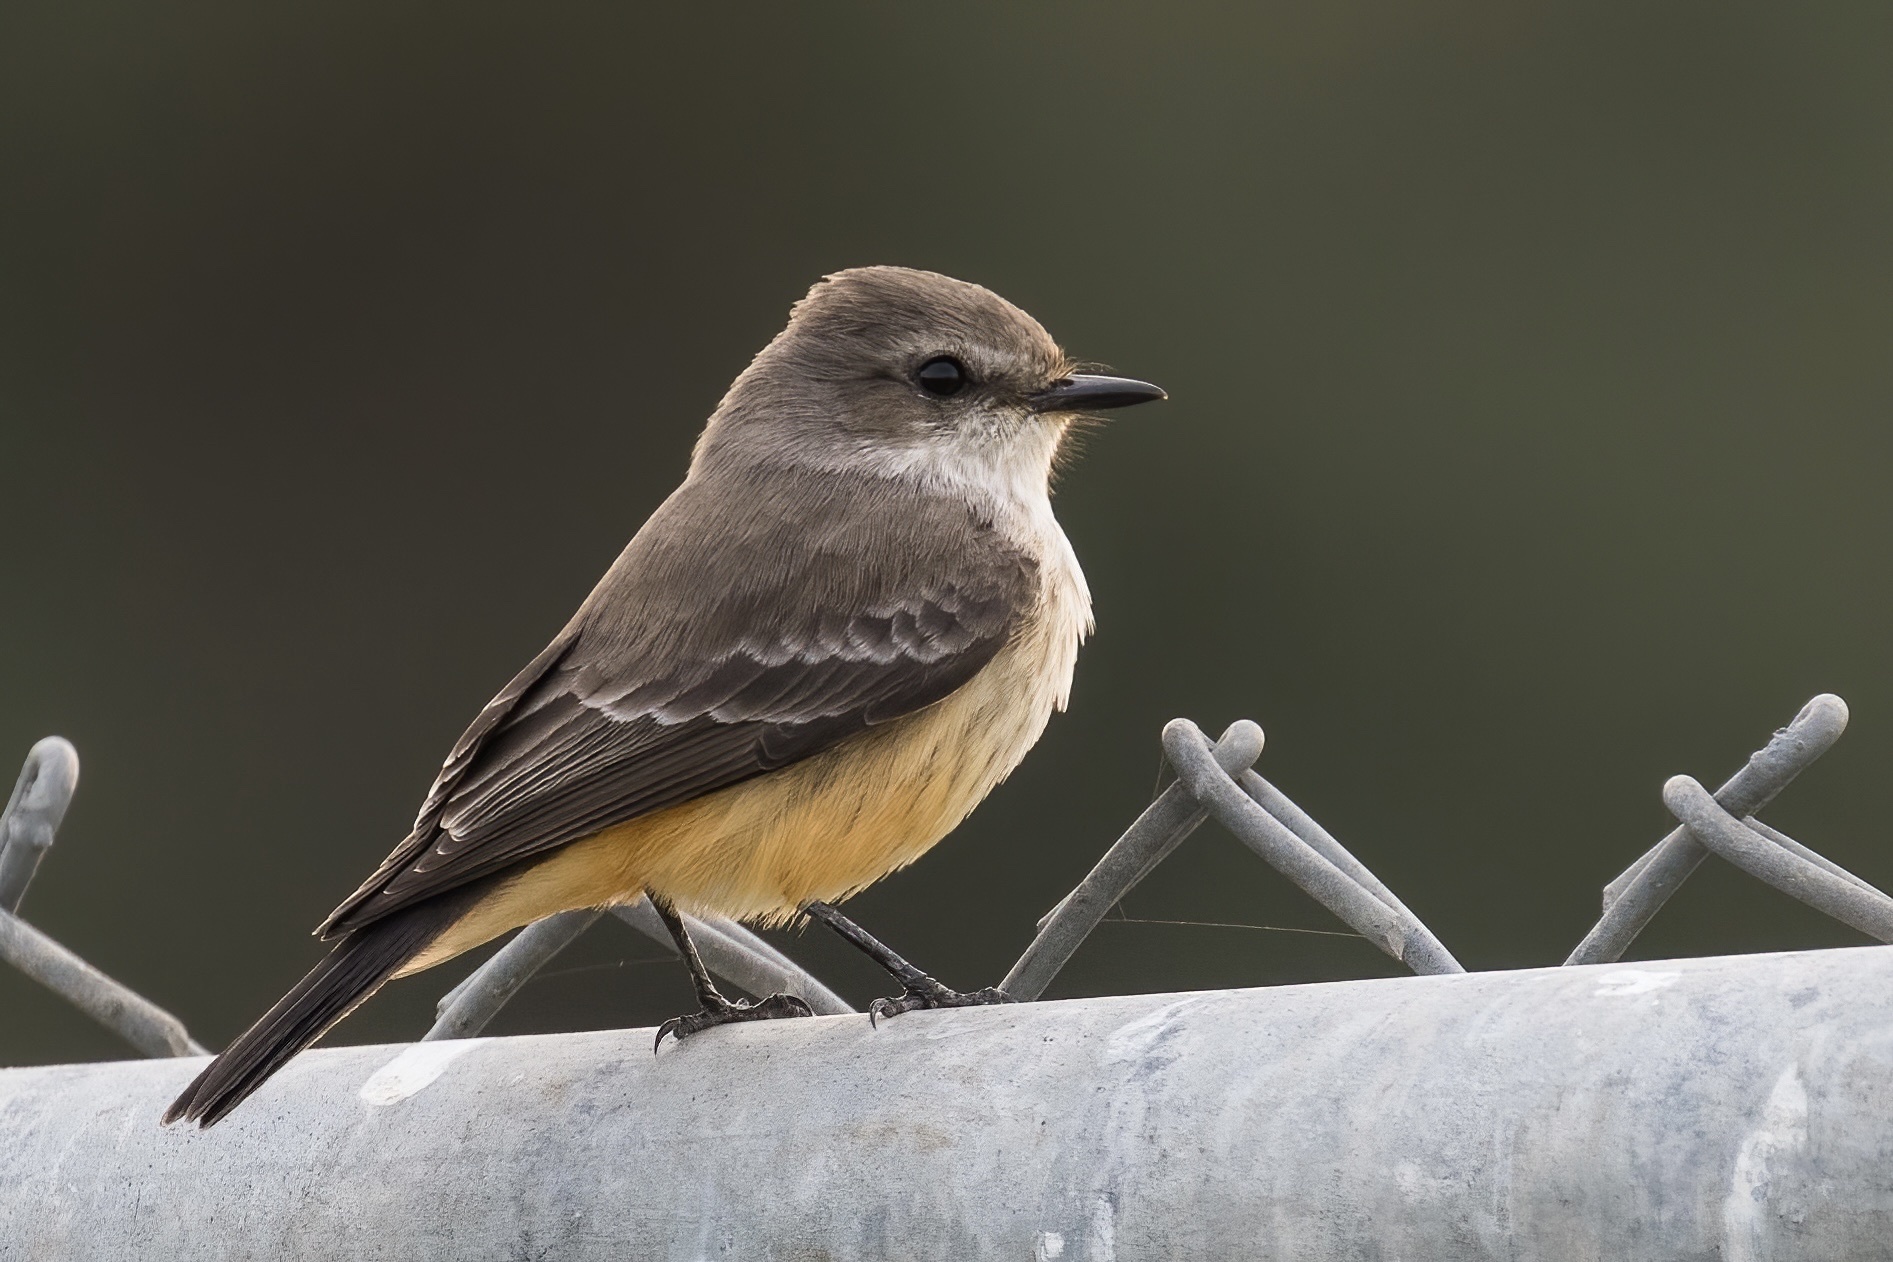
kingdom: Animalia
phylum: Chordata
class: Aves
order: Passeriformes
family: Tyrannidae
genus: Pyrocephalus
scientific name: Pyrocephalus rubinus
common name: Vermilion flycatcher
